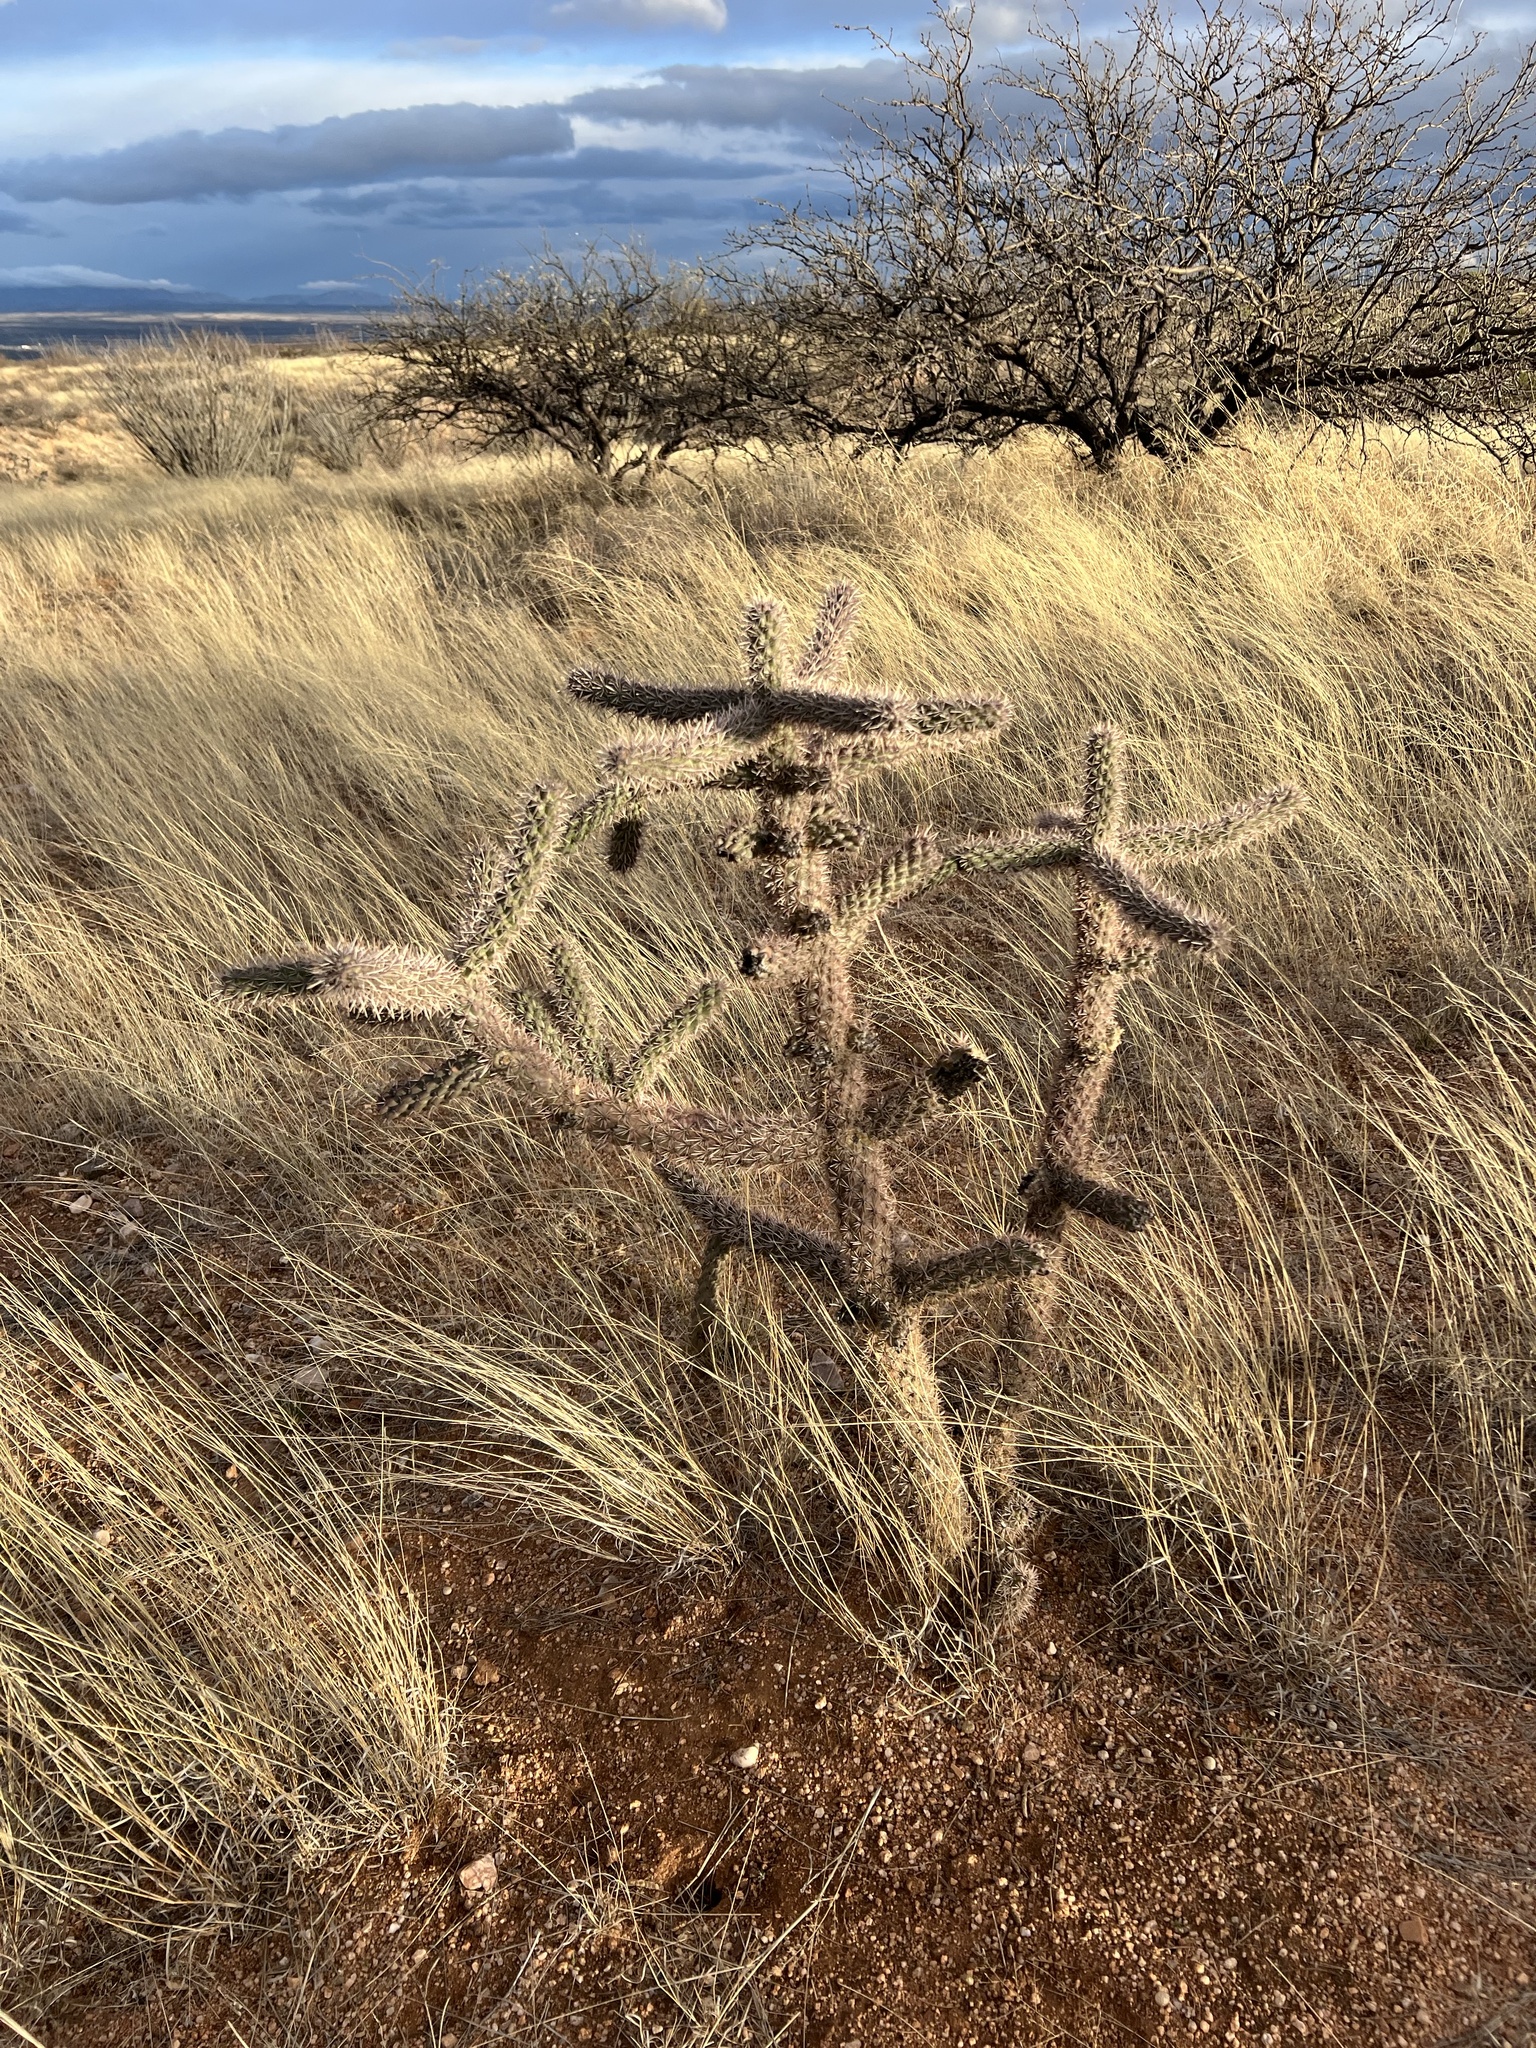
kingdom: Plantae
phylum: Tracheophyta
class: Magnoliopsida
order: Caryophyllales
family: Cactaceae
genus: Cylindropuntia
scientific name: Cylindropuntia imbricata
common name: Candelabrum cactus
